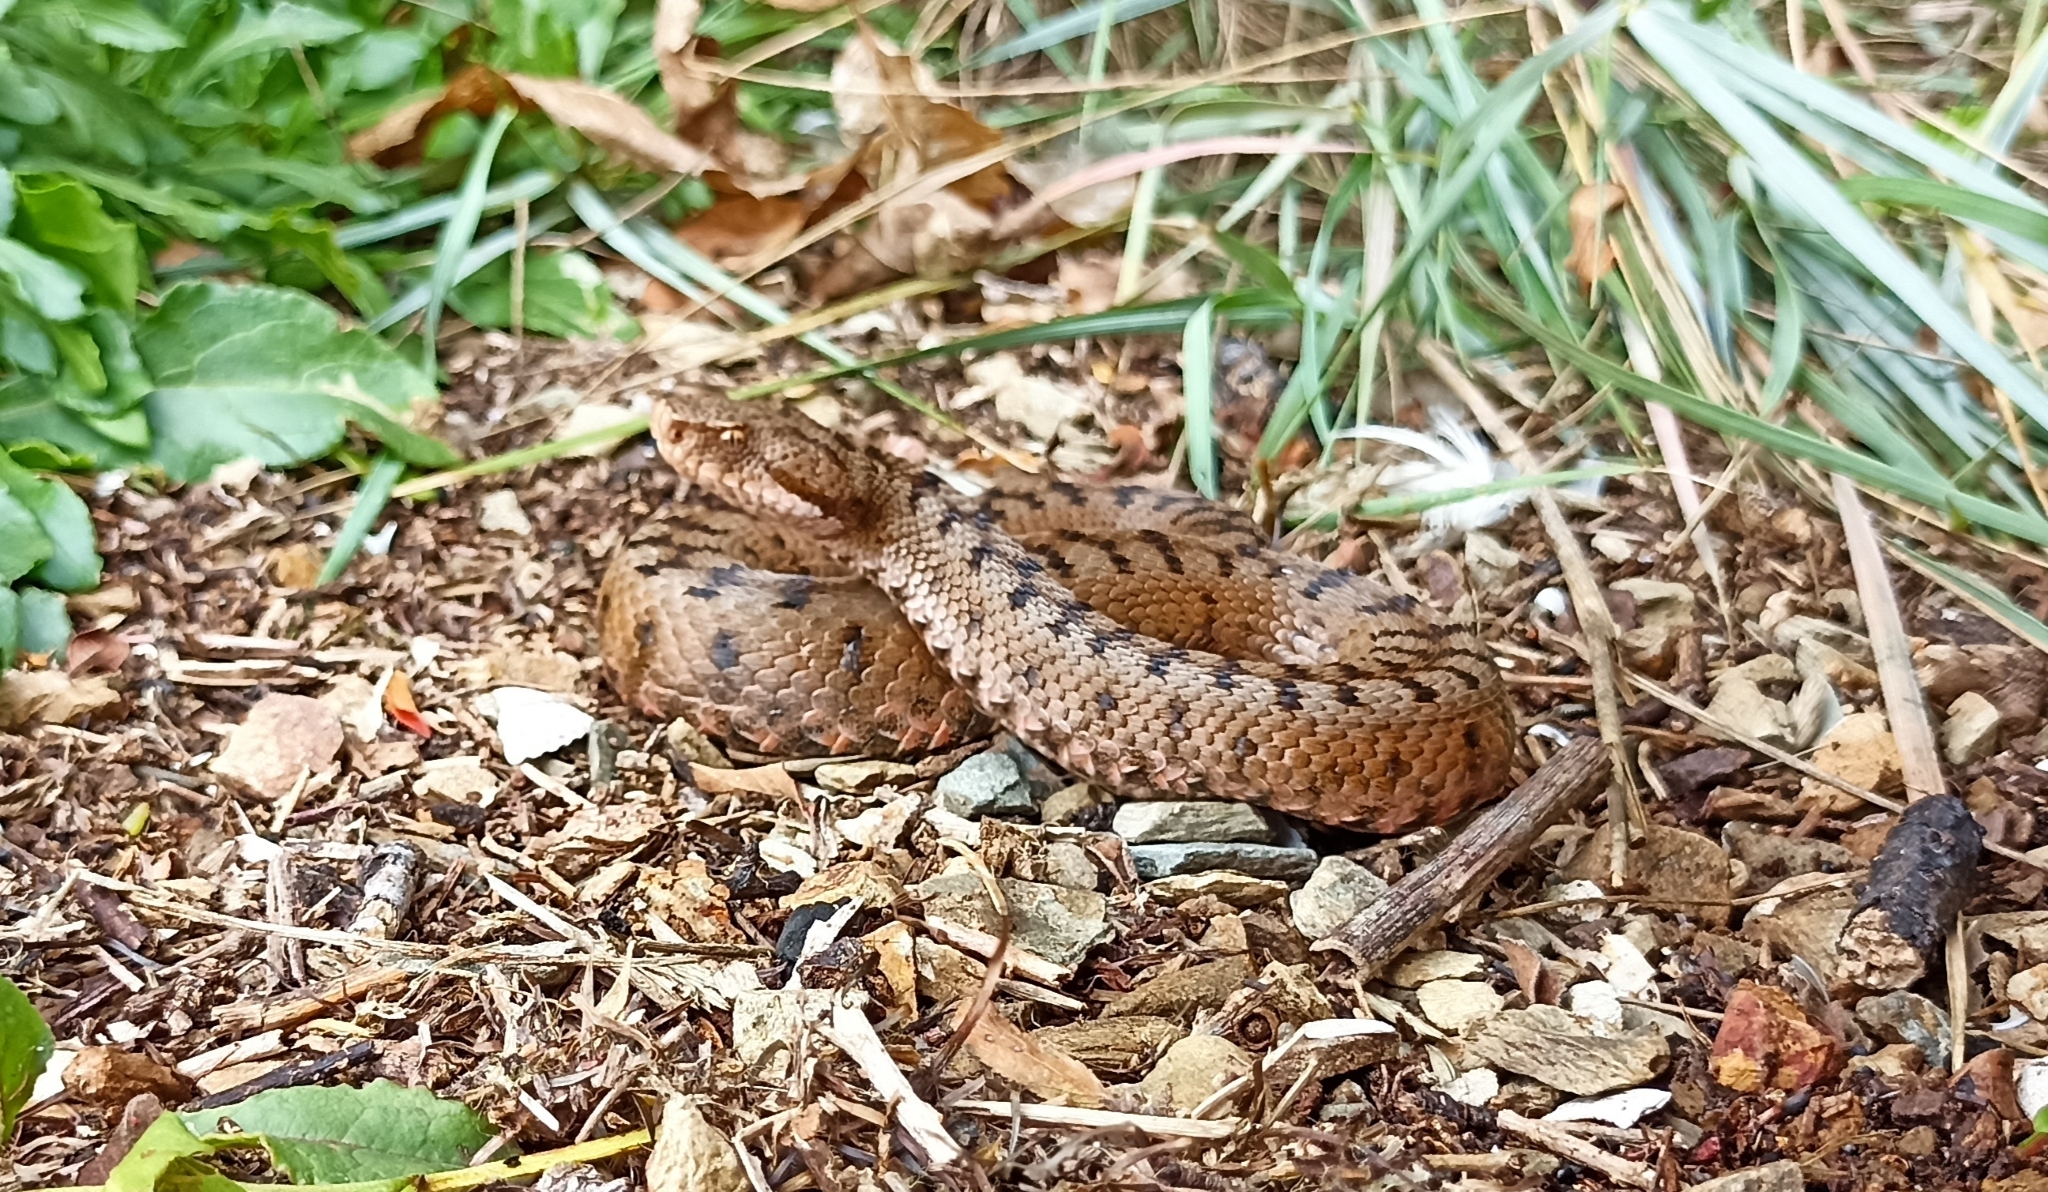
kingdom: Animalia
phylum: Chordata
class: Squamata
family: Viperidae
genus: Vipera
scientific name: Vipera aspis
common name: Asp viper
